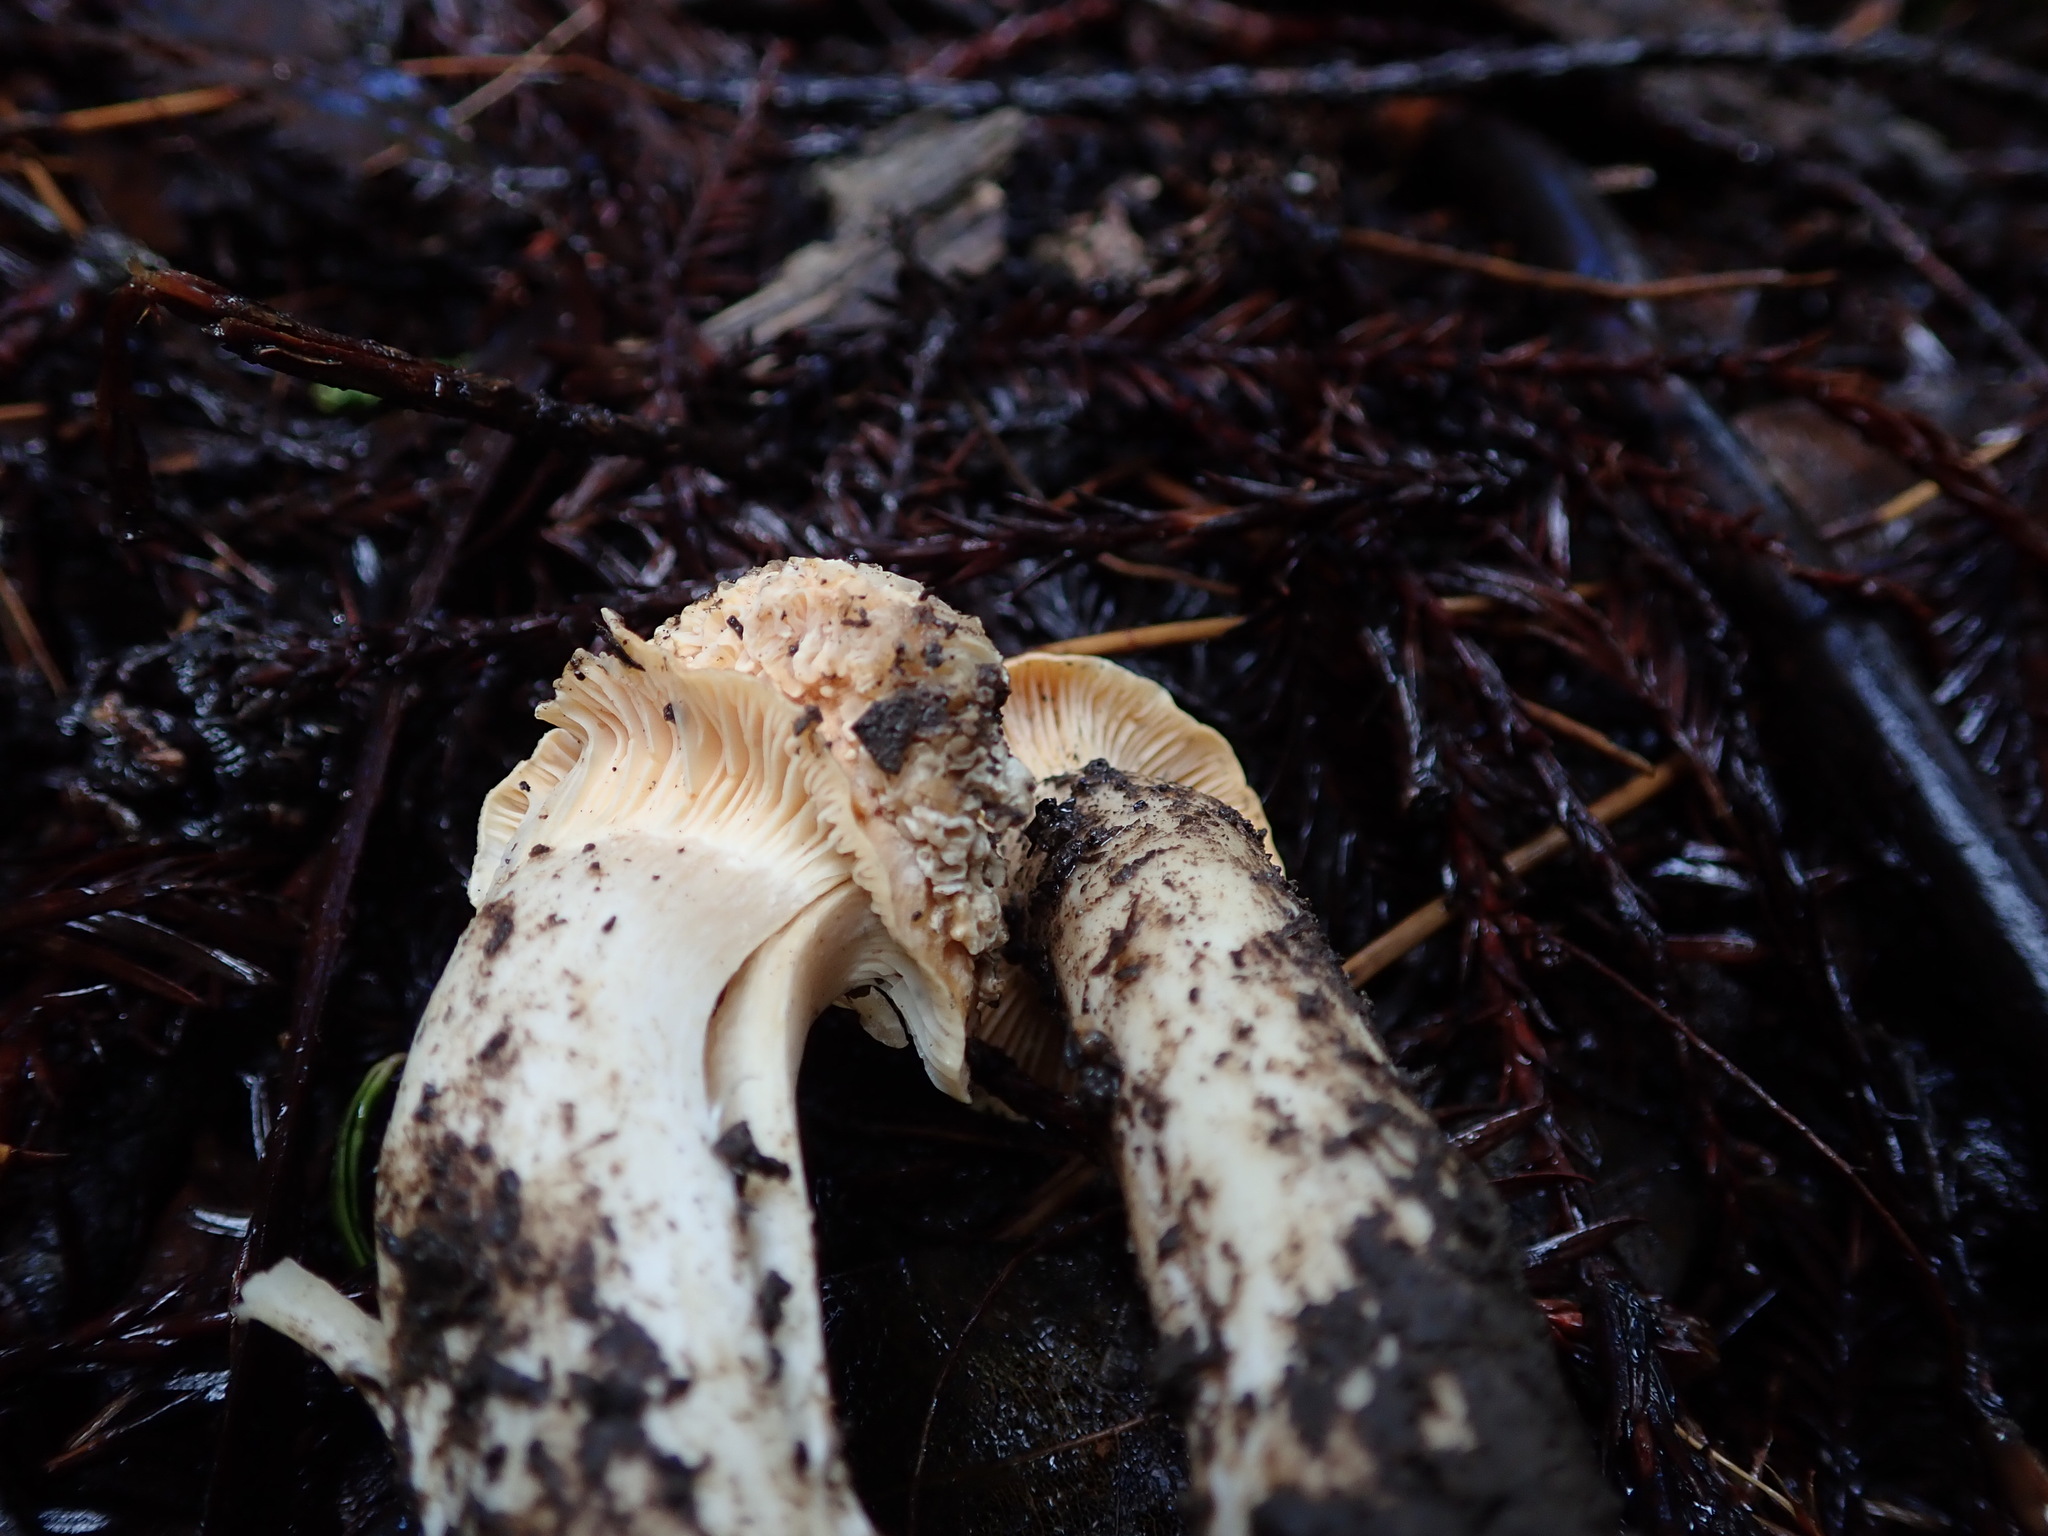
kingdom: Fungi
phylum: Basidiomycota
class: Agaricomycetes
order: Agaricales
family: Hygrophoraceae
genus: Cuphophyllus
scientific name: Cuphophyllus pratensis
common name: Meadow waxcap
